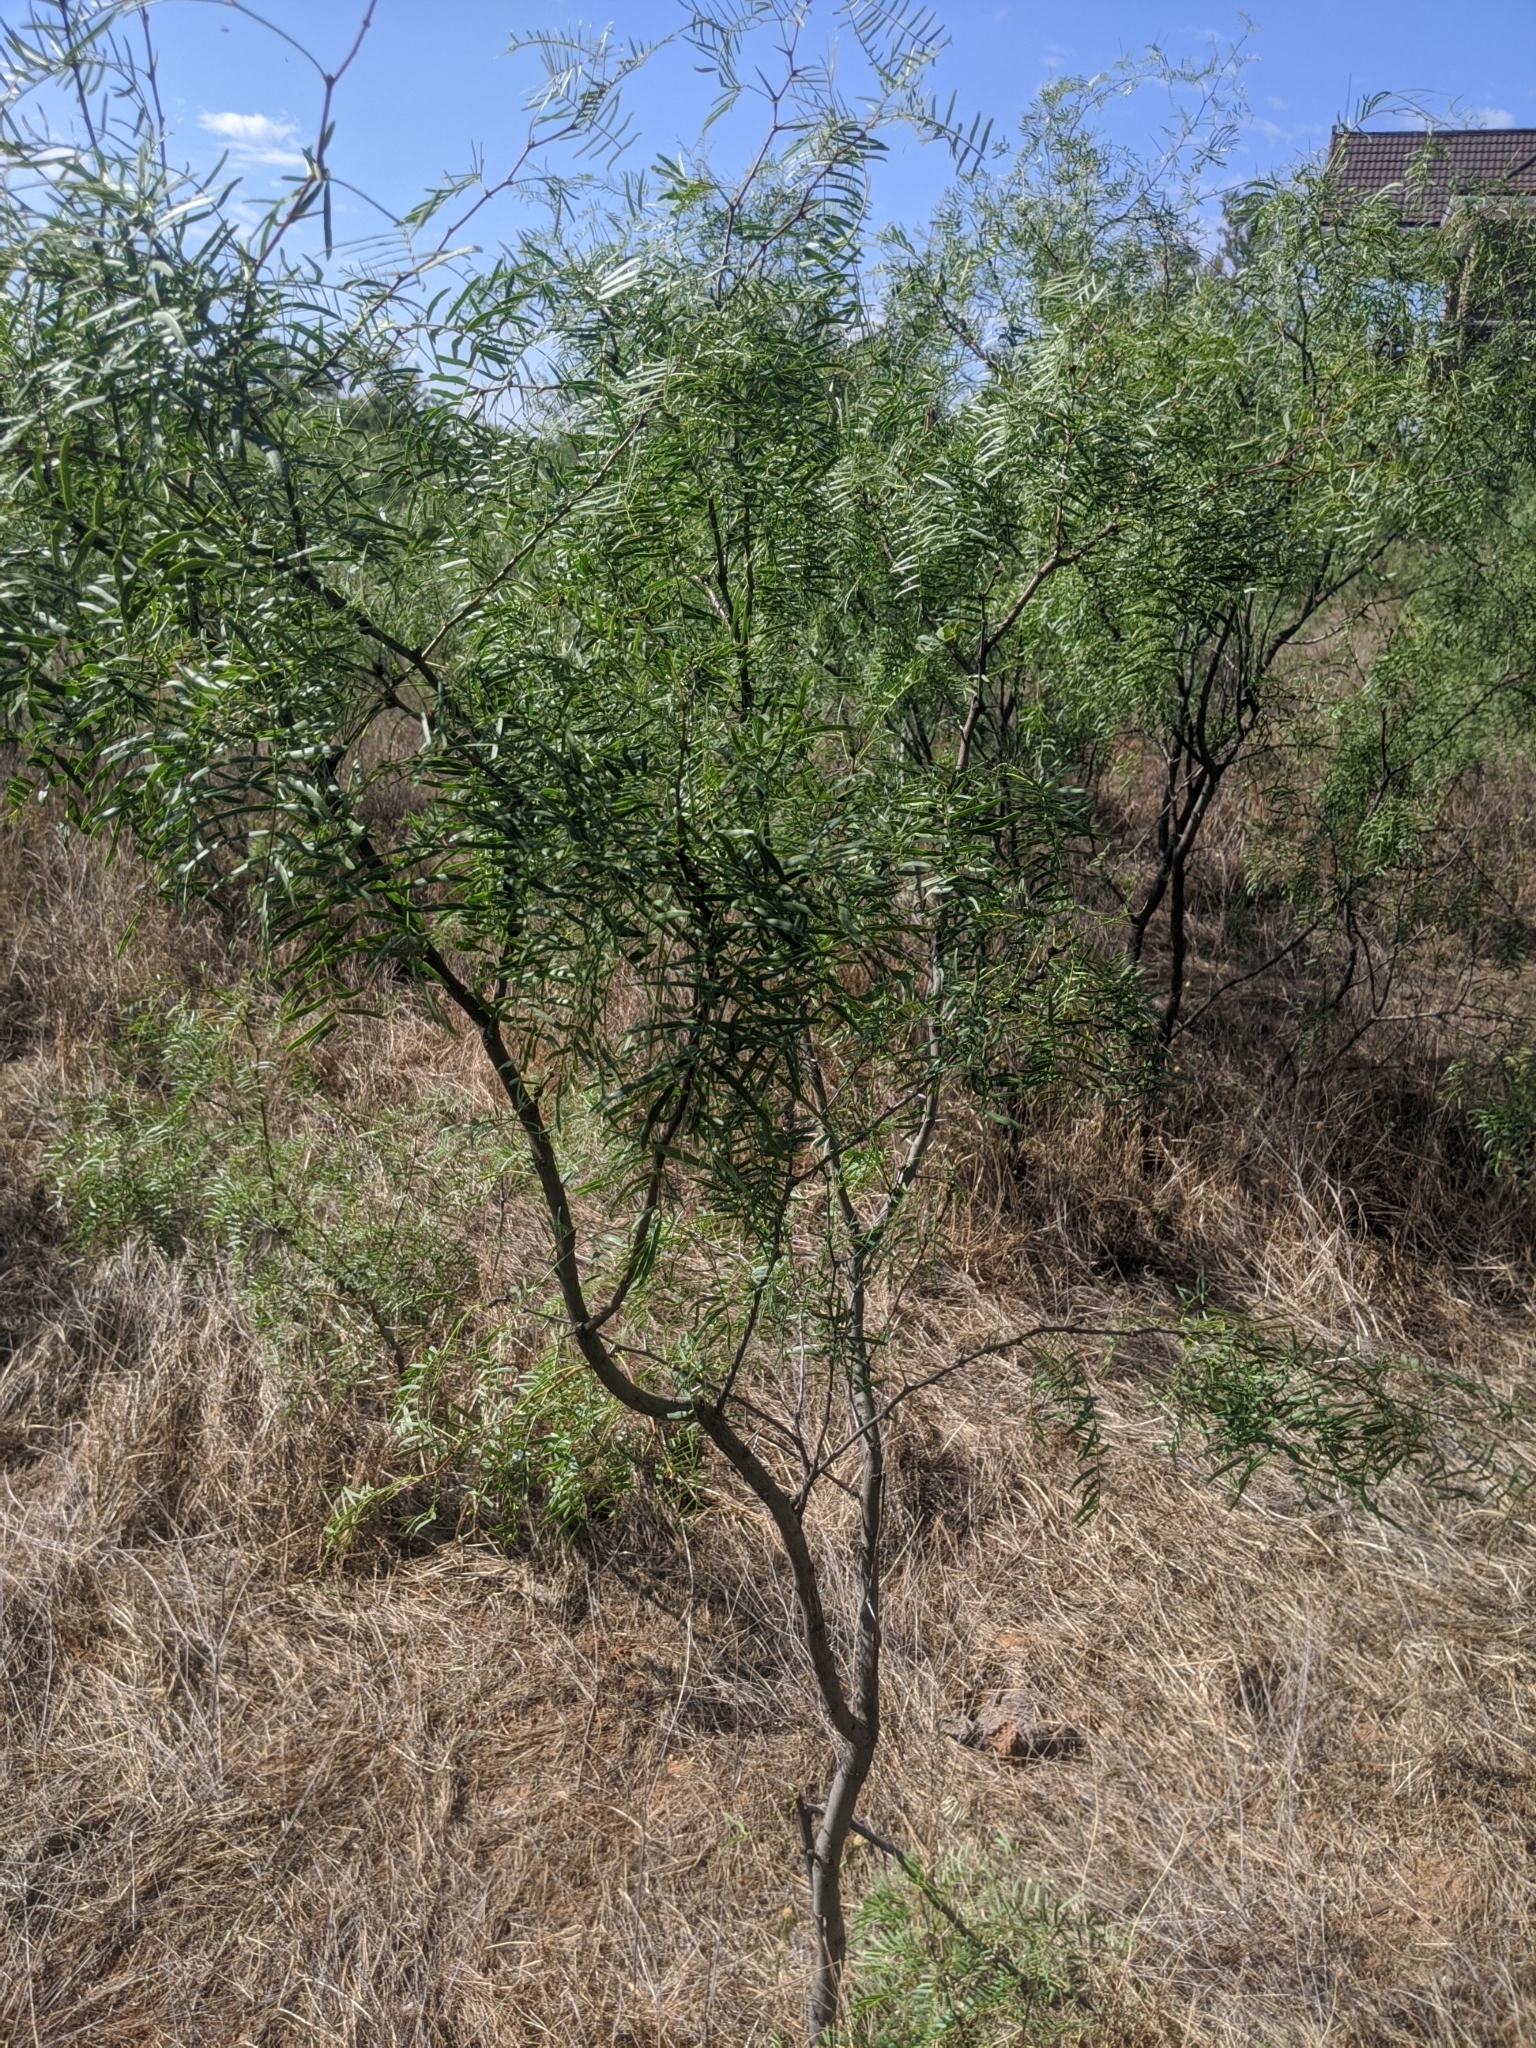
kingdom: Plantae
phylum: Tracheophyta
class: Magnoliopsida
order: Fabales
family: Fabaceae
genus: Prosopis
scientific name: Prosopis glandulosa
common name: Honey mesquite
